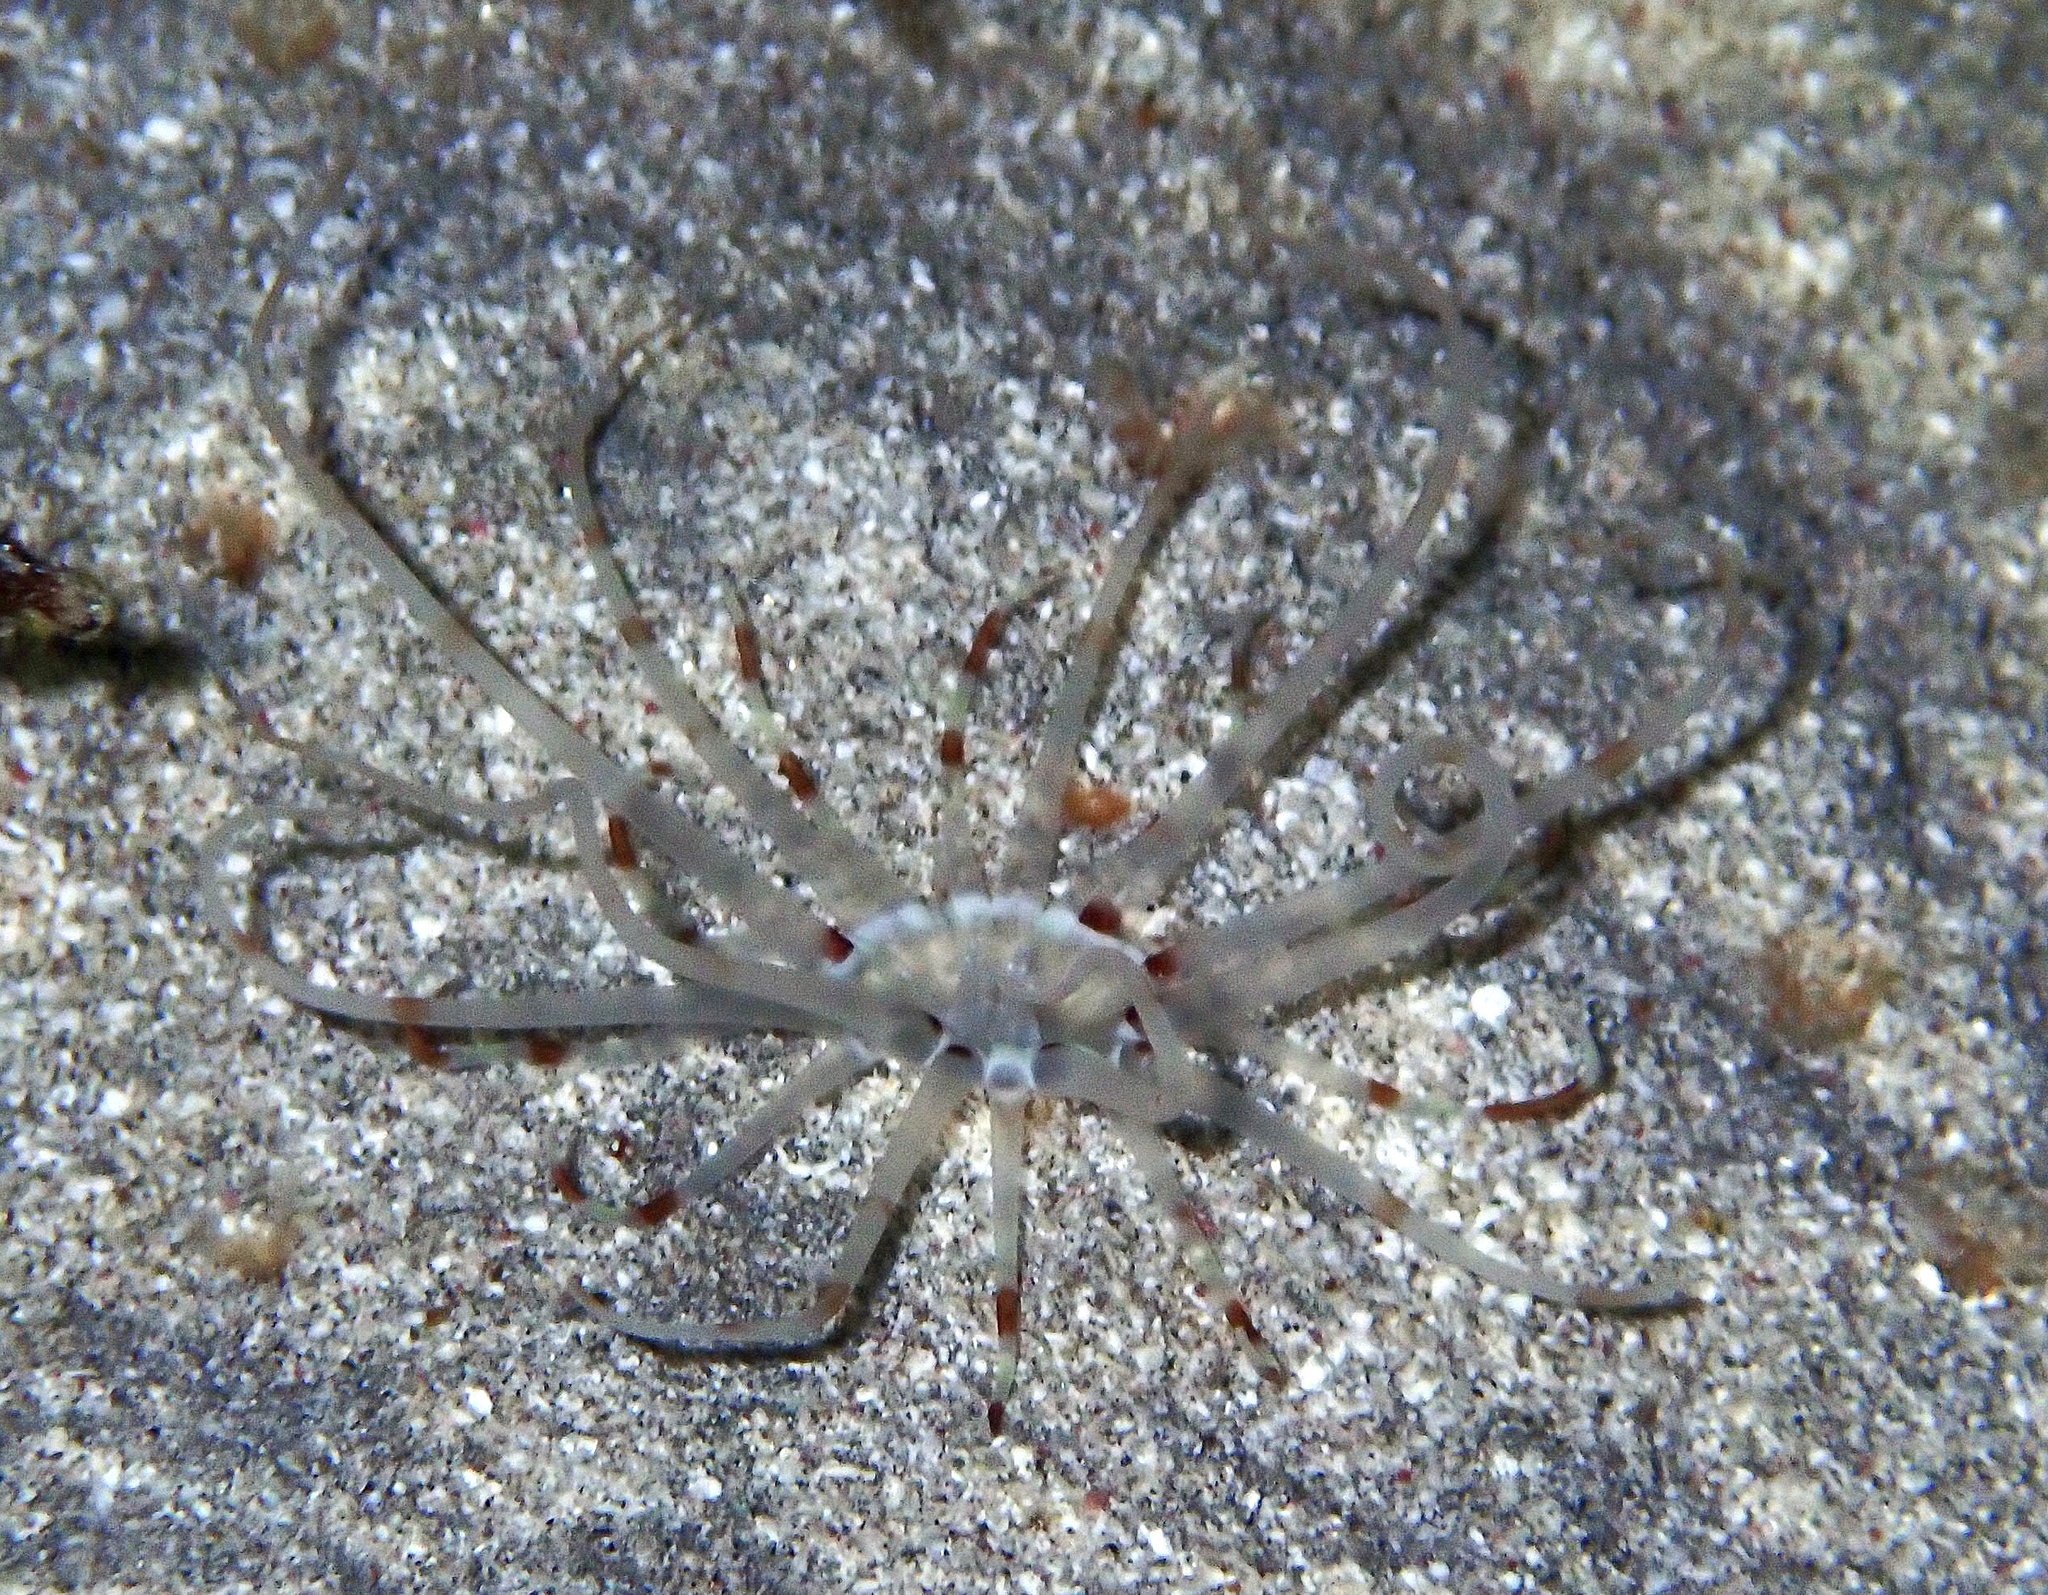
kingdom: Animalia
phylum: Cnidaria
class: Anthozoa
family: Arachnactidae
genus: Arachnanthus
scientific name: Arachnanthus lilith
